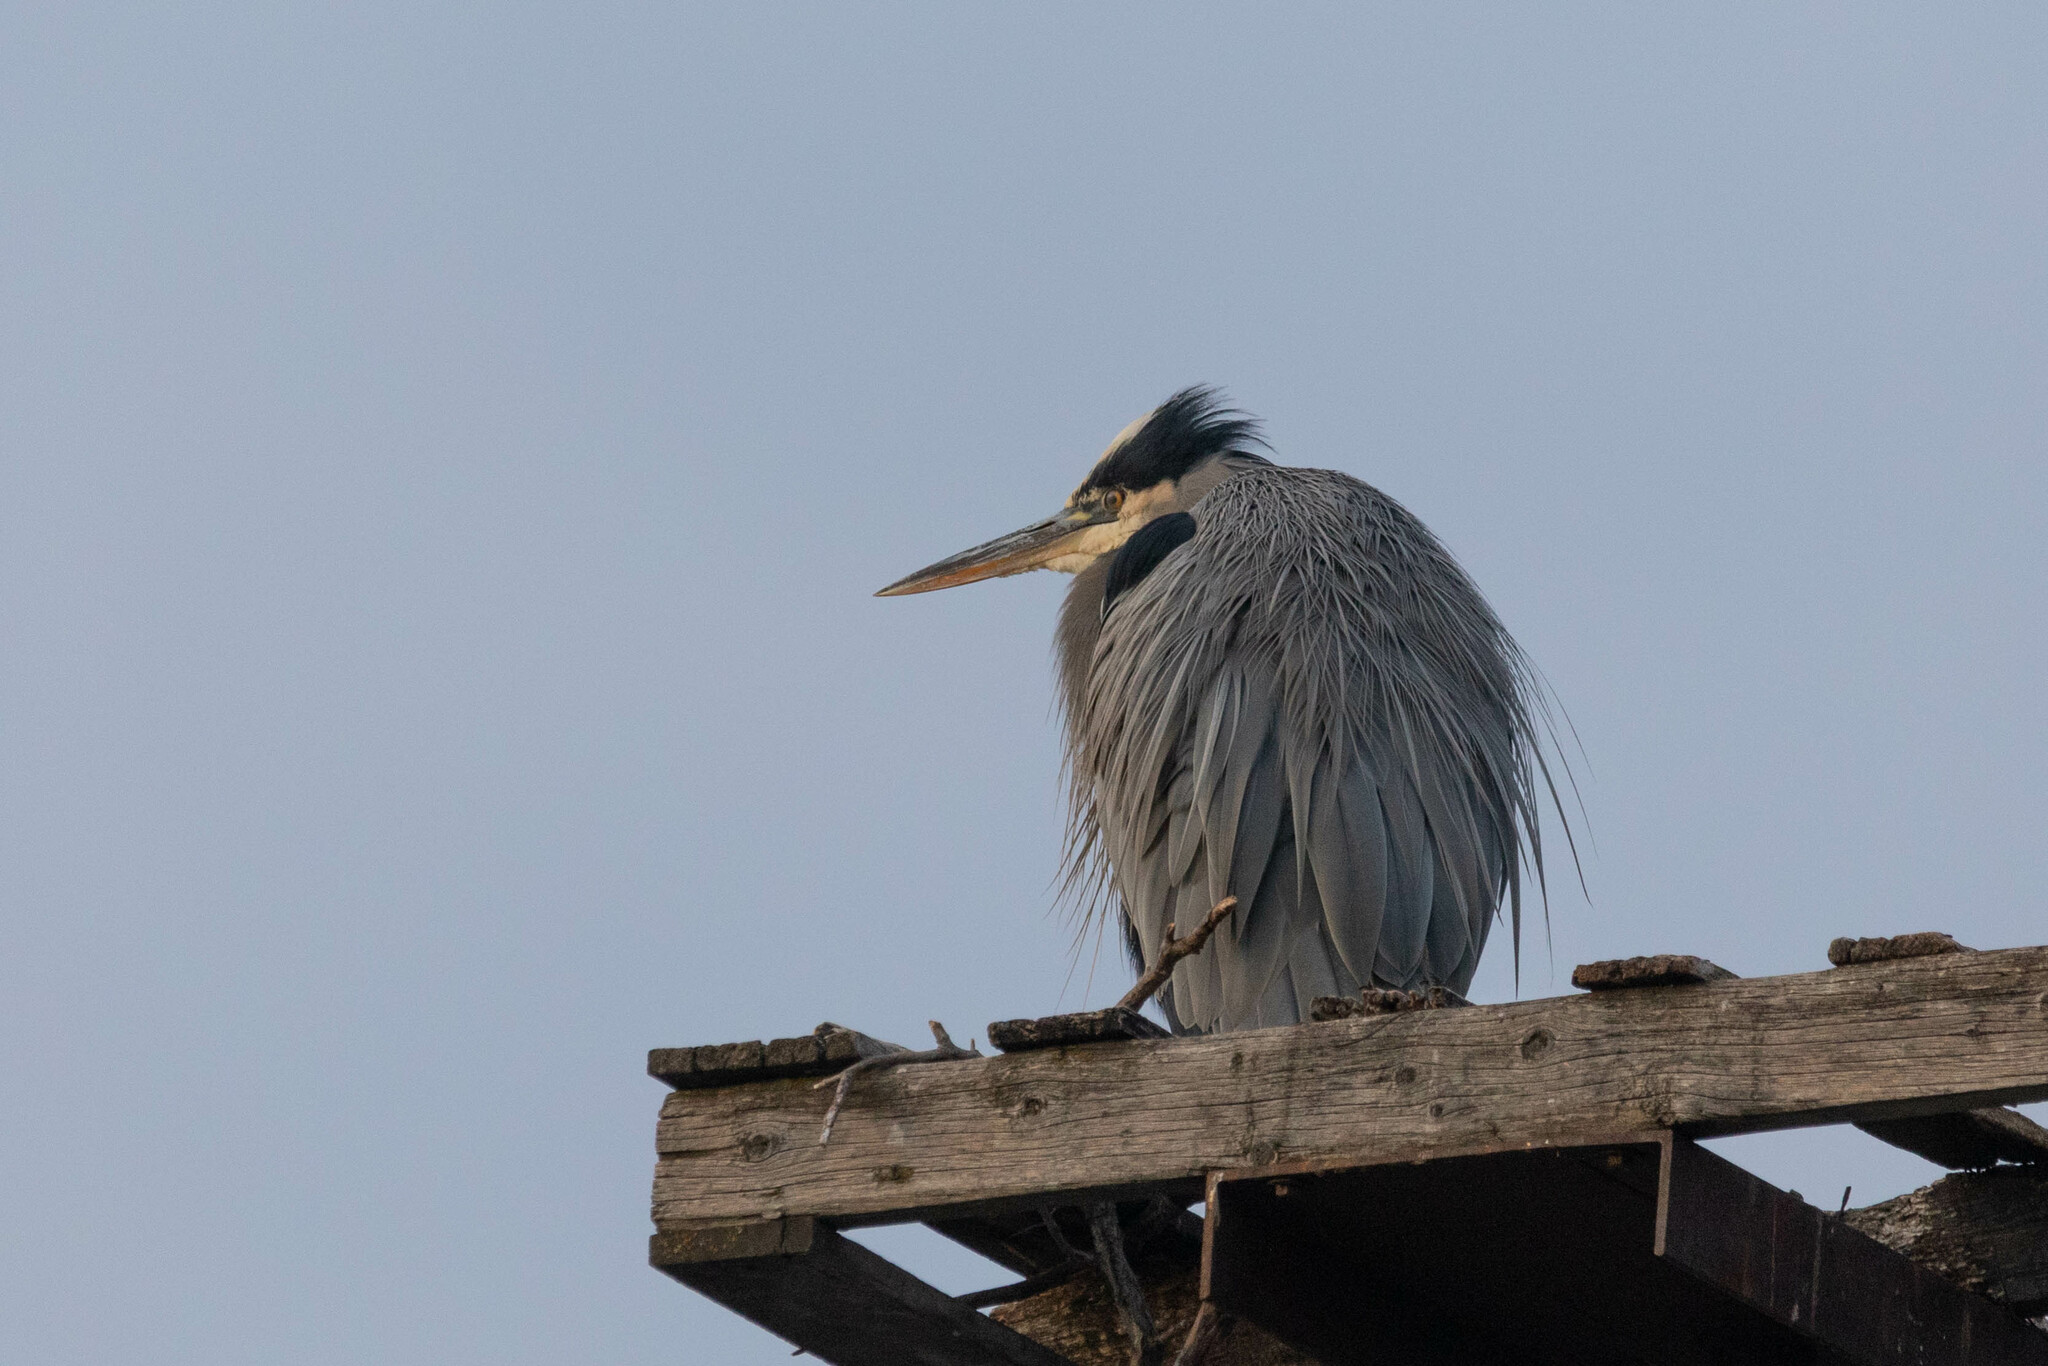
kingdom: Animalia
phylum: Chordata
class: Aves
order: Pelecaniformes
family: Ardeidae
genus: Ardea
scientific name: Ardea herodias
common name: Great blue heron
